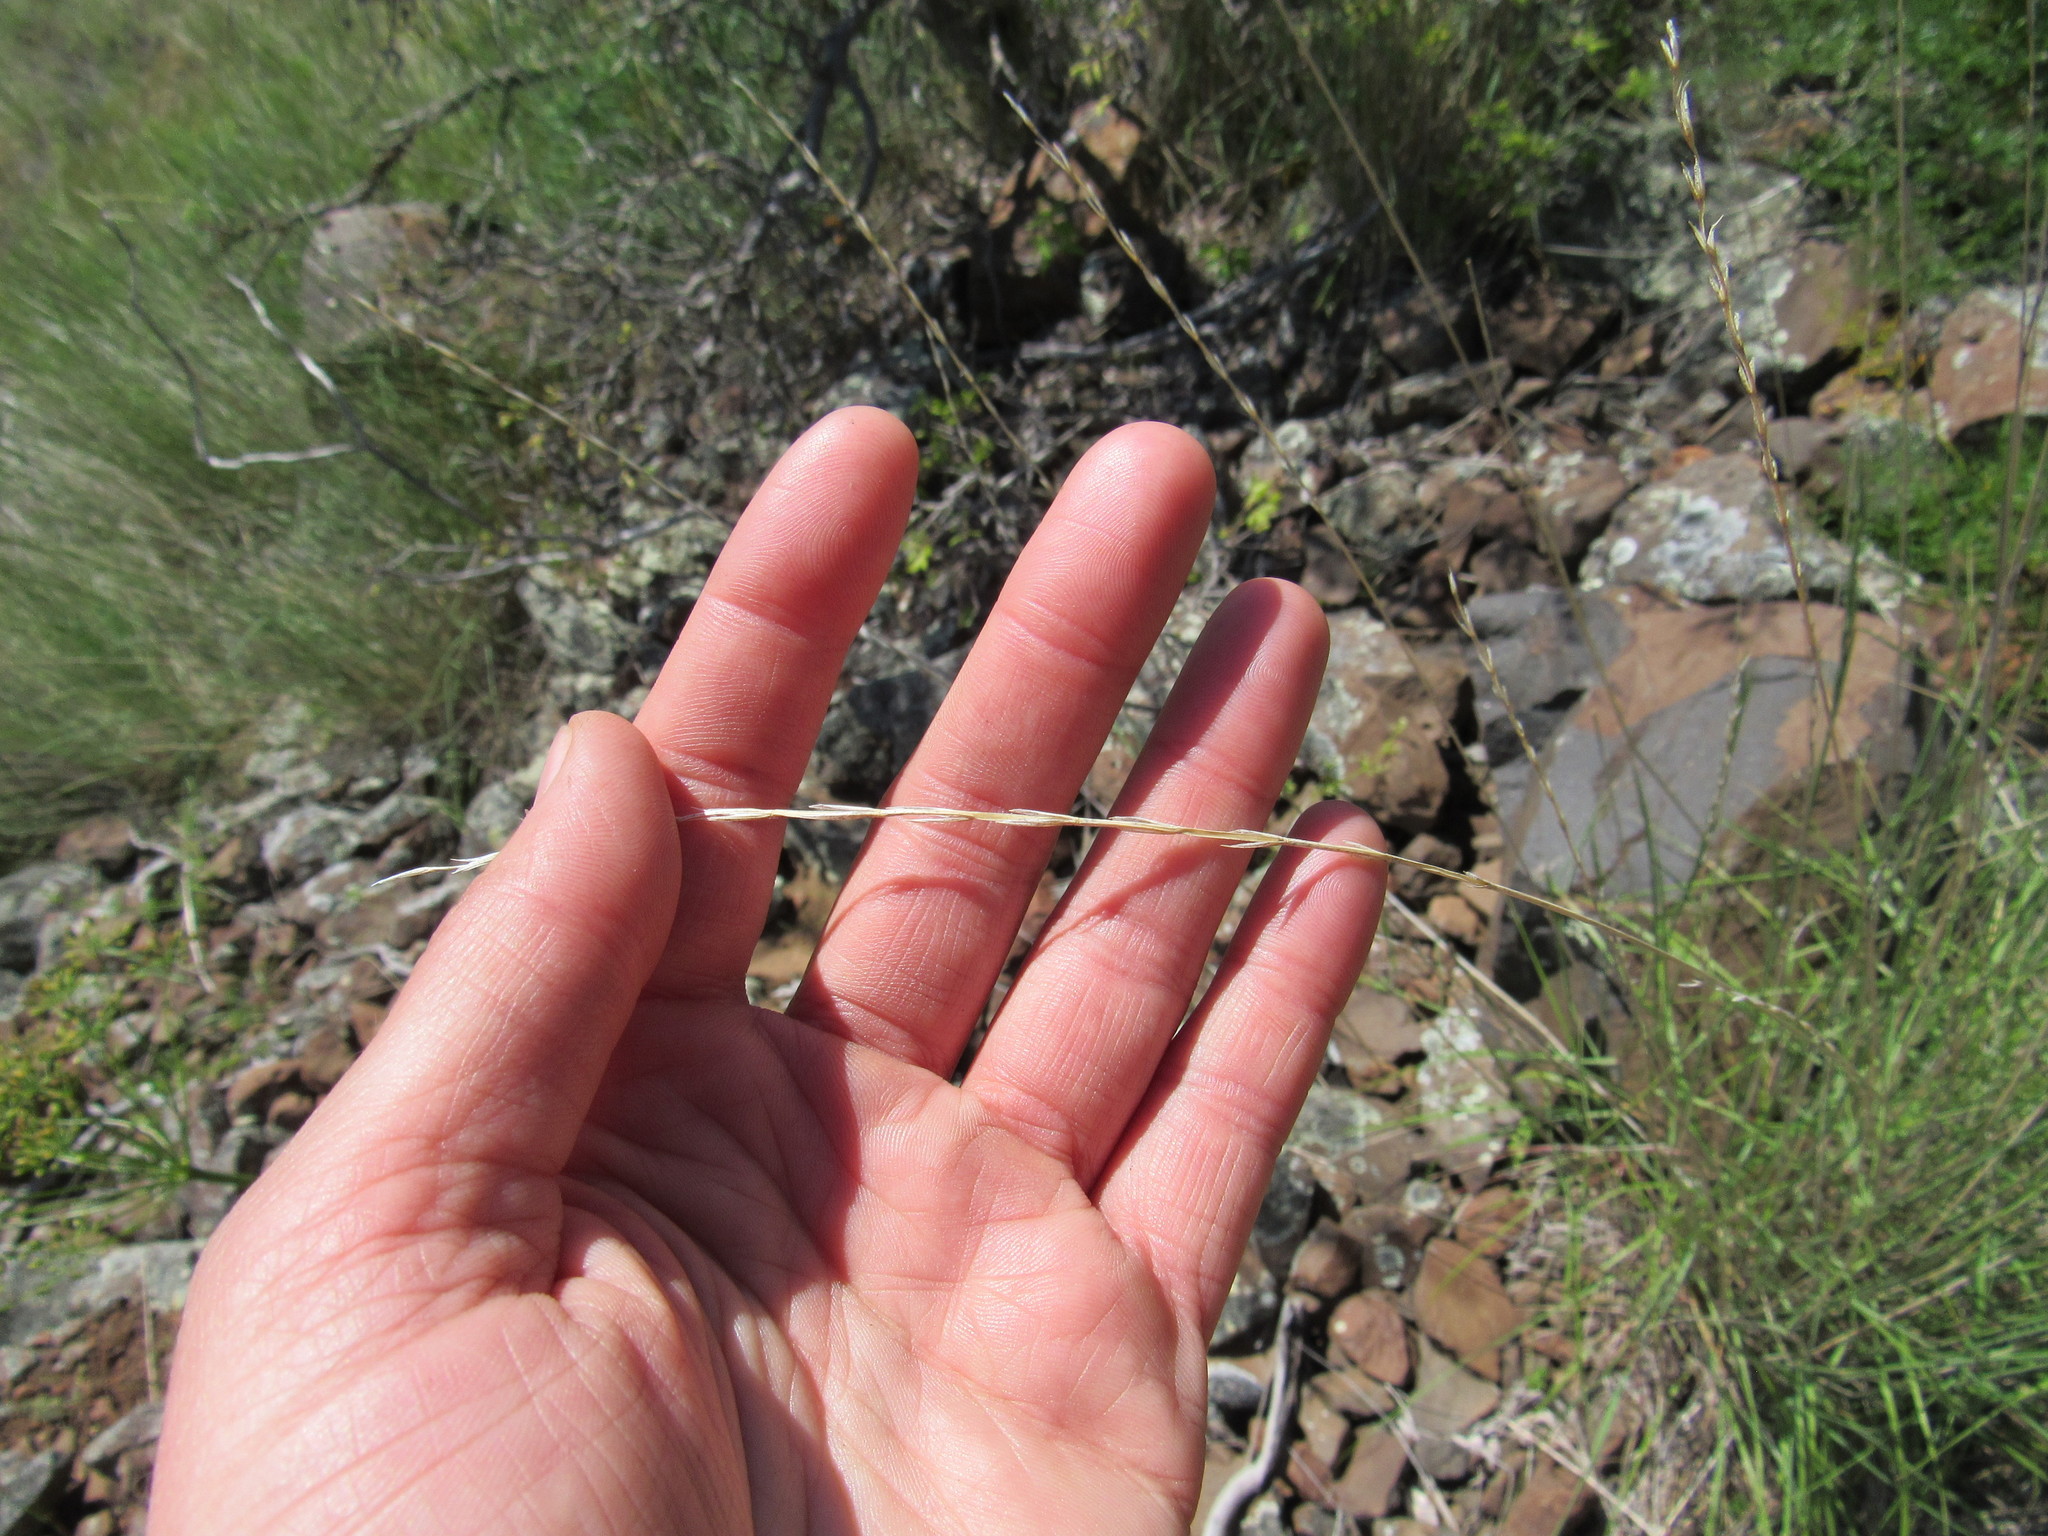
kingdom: Plantae
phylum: Tracheophyta
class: Liliopsida
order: Poales
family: Poaceae
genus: Pseudoroegneria
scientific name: Pseudoroegneria spicata
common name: Bluebunch wheatgrass
